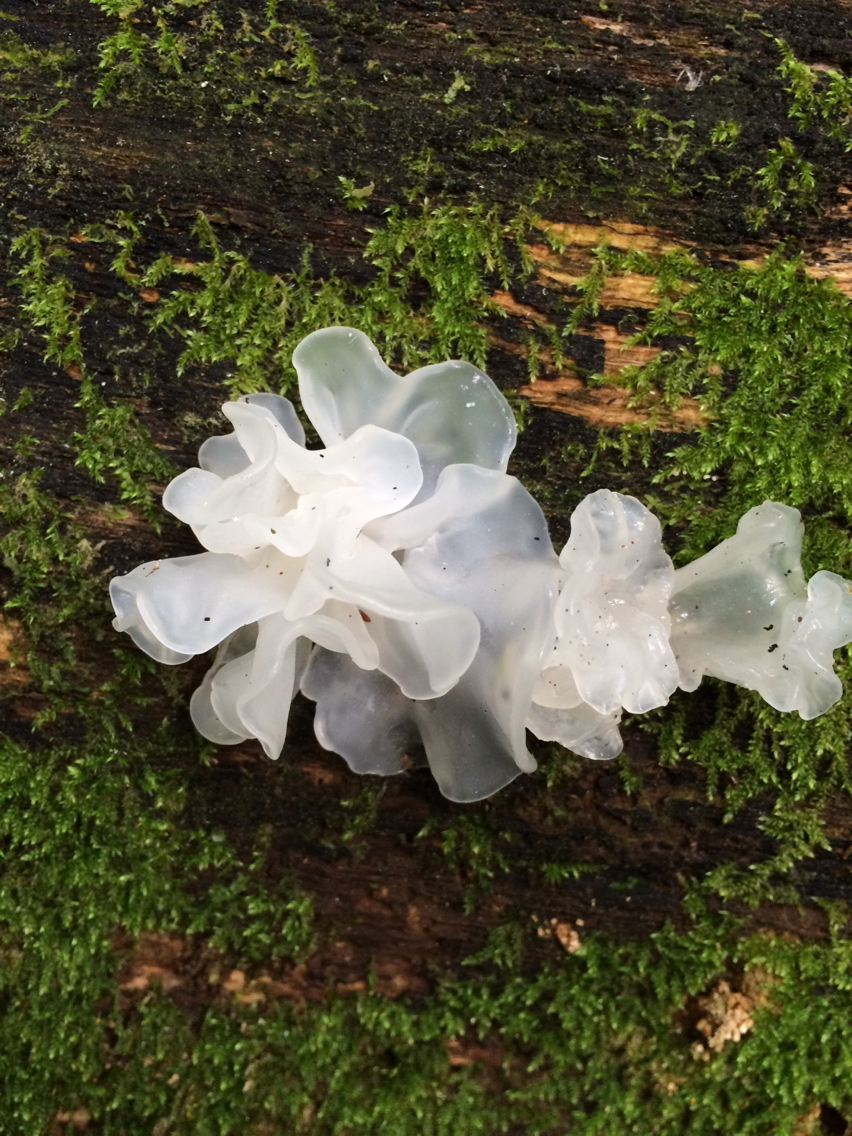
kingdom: Fungi
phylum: Basidiomycota
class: Tremellomycetes
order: Tremellales
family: Tremellaceae
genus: Tremella
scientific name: Tremella fuciformis
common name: Snow fungus
